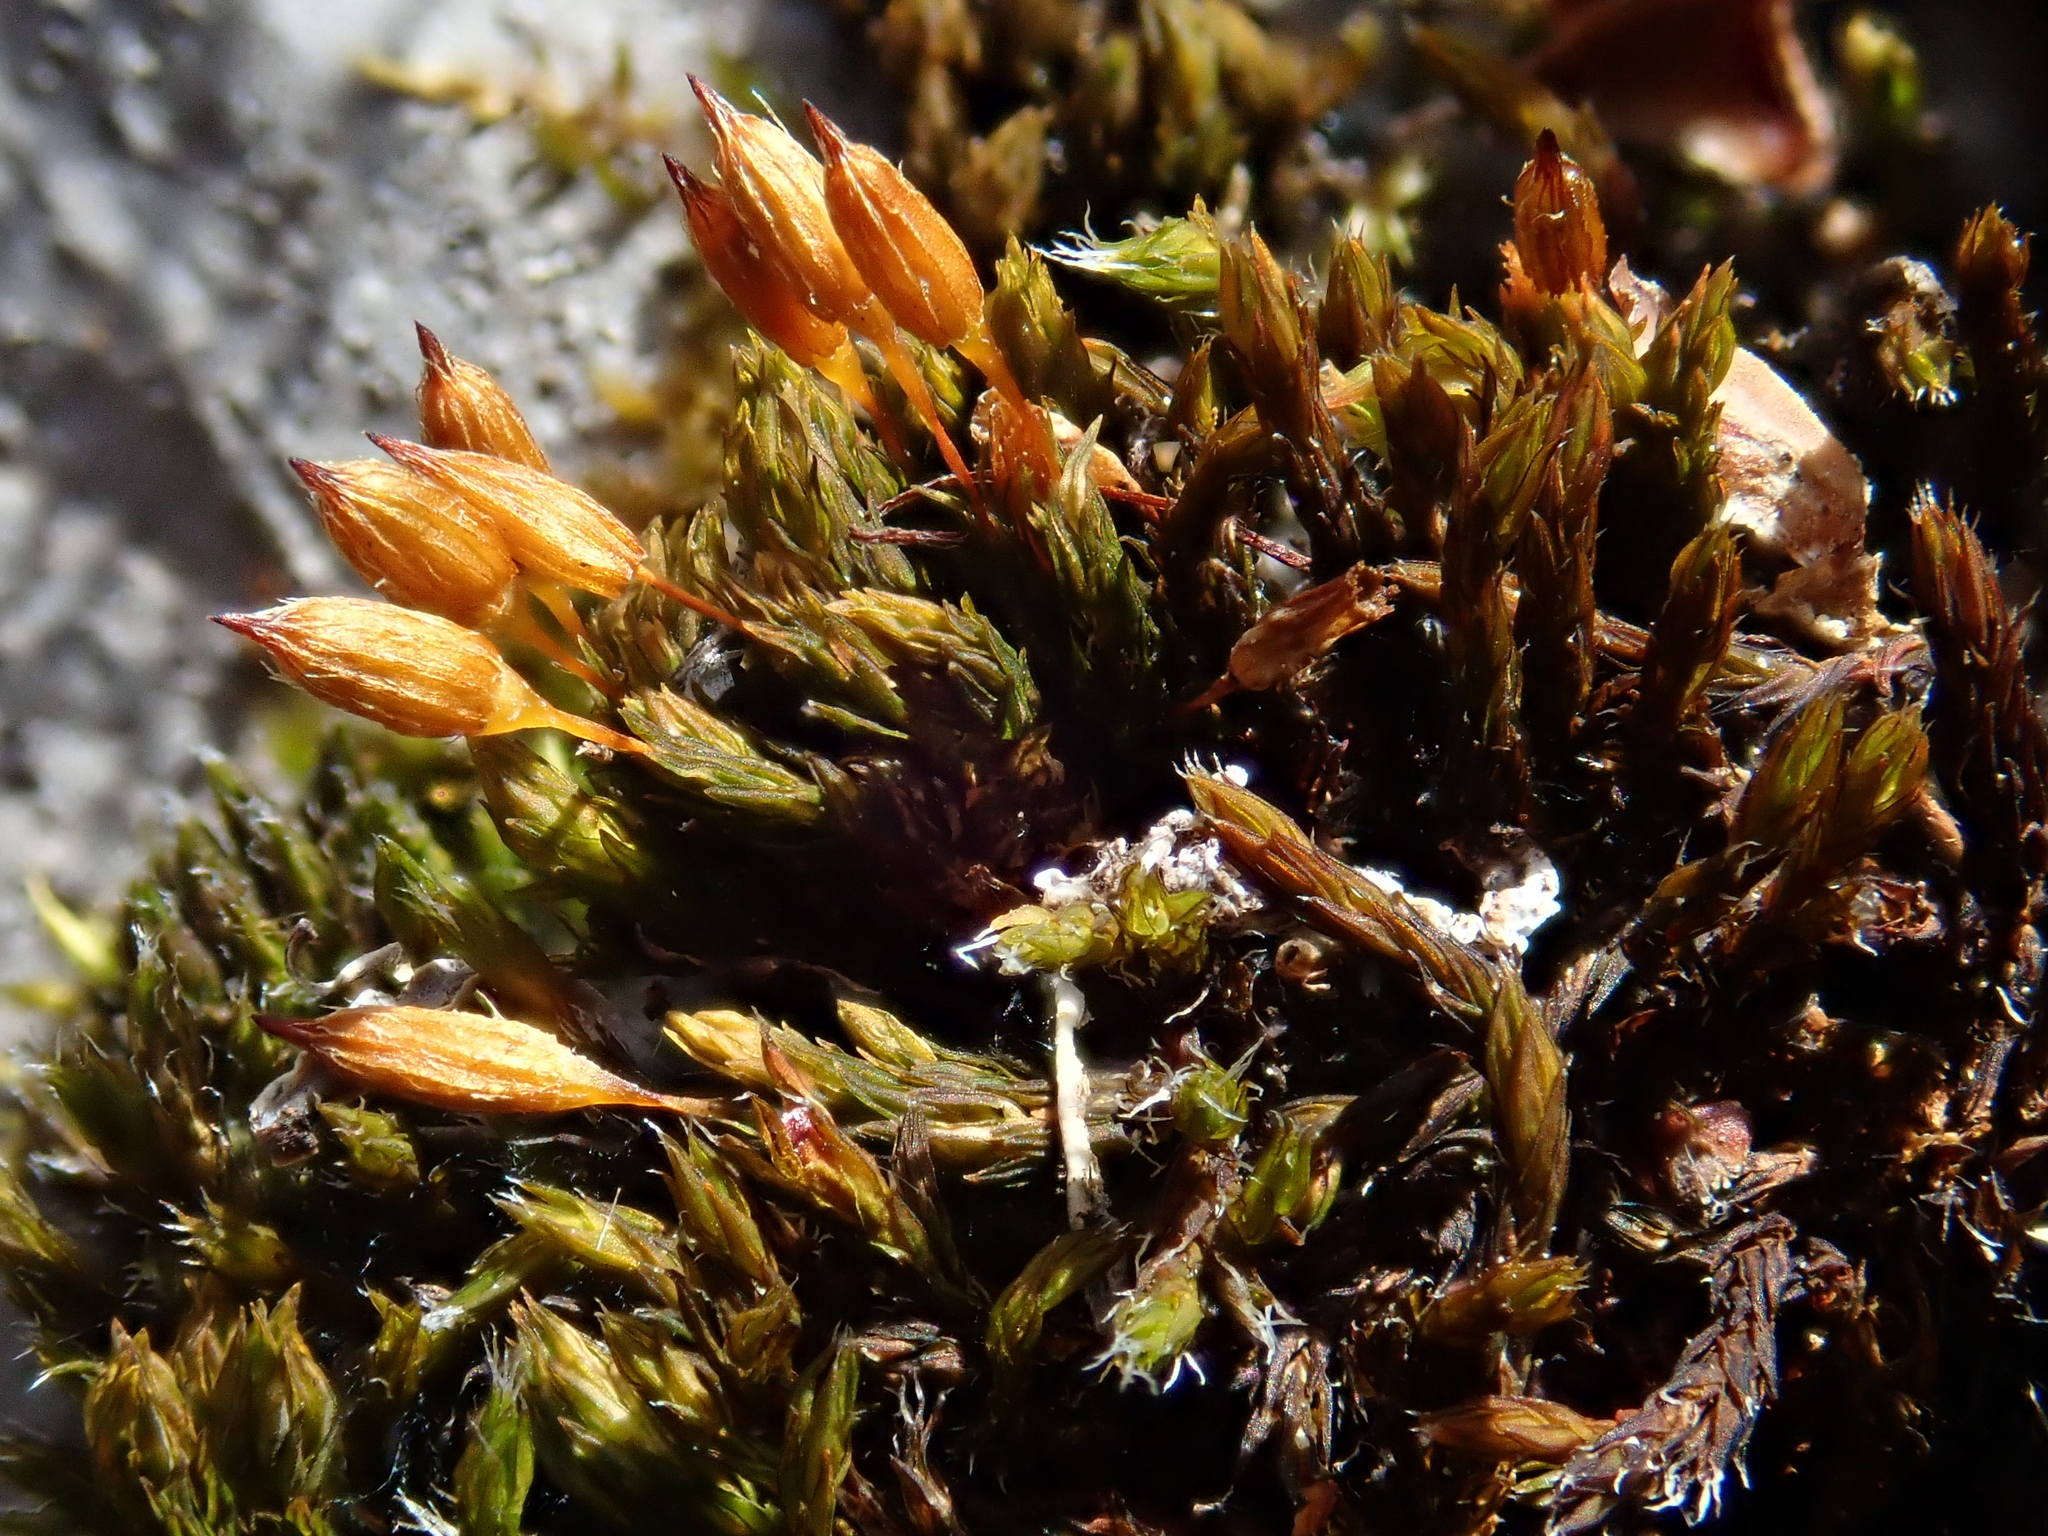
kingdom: Plantae
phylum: Bryophyta
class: Bryopsida
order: Orthotrichales
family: Orthotrichaceae
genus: Orthotrichum
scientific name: Orthotrichum anomalum
